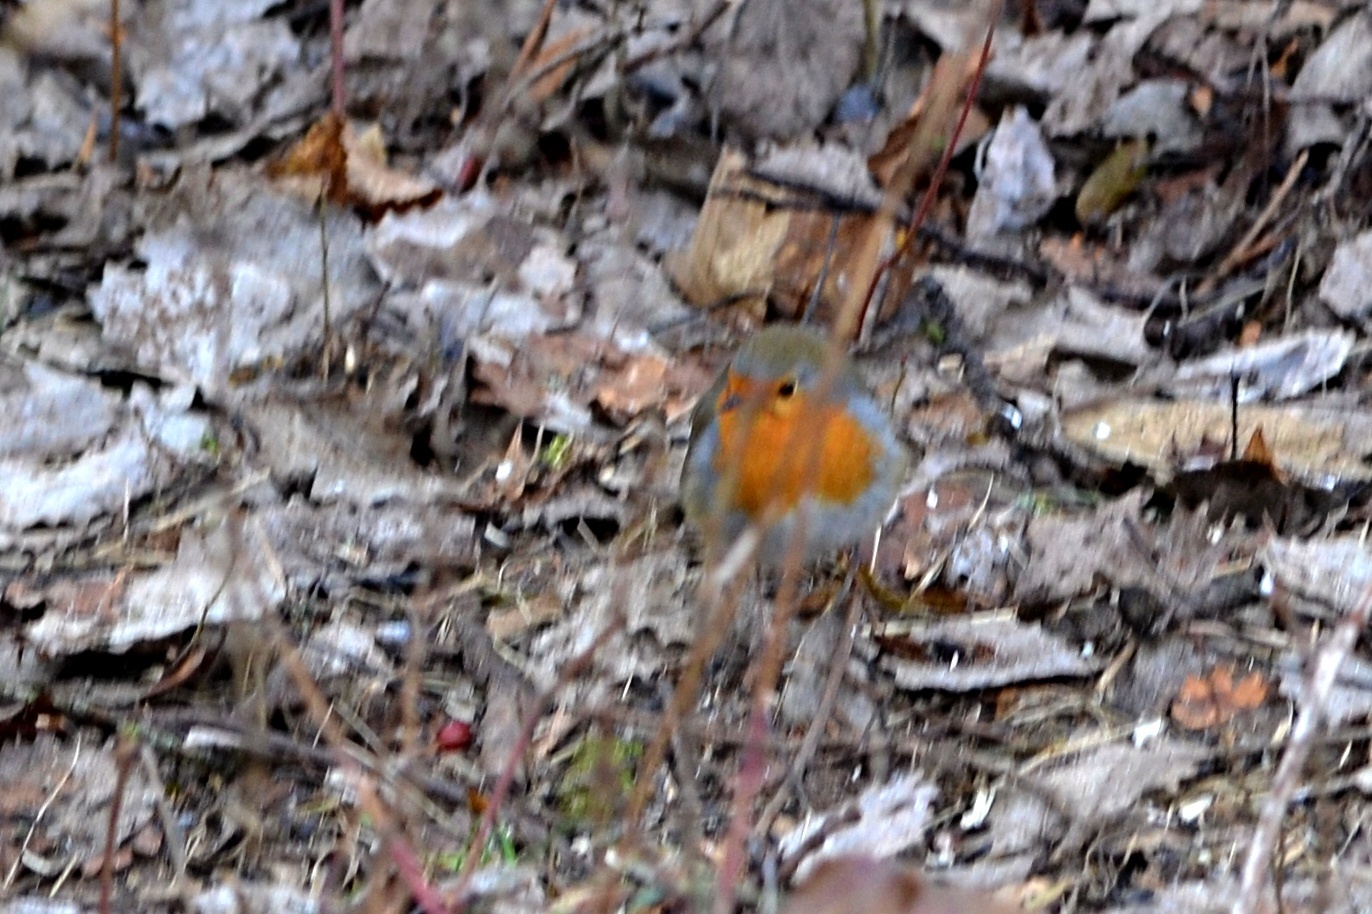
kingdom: Animalia
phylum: Chordata
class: Aves
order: Passeriformes
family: Muscicapidae
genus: Erithacus
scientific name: Erithacus rubecula
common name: European robin
